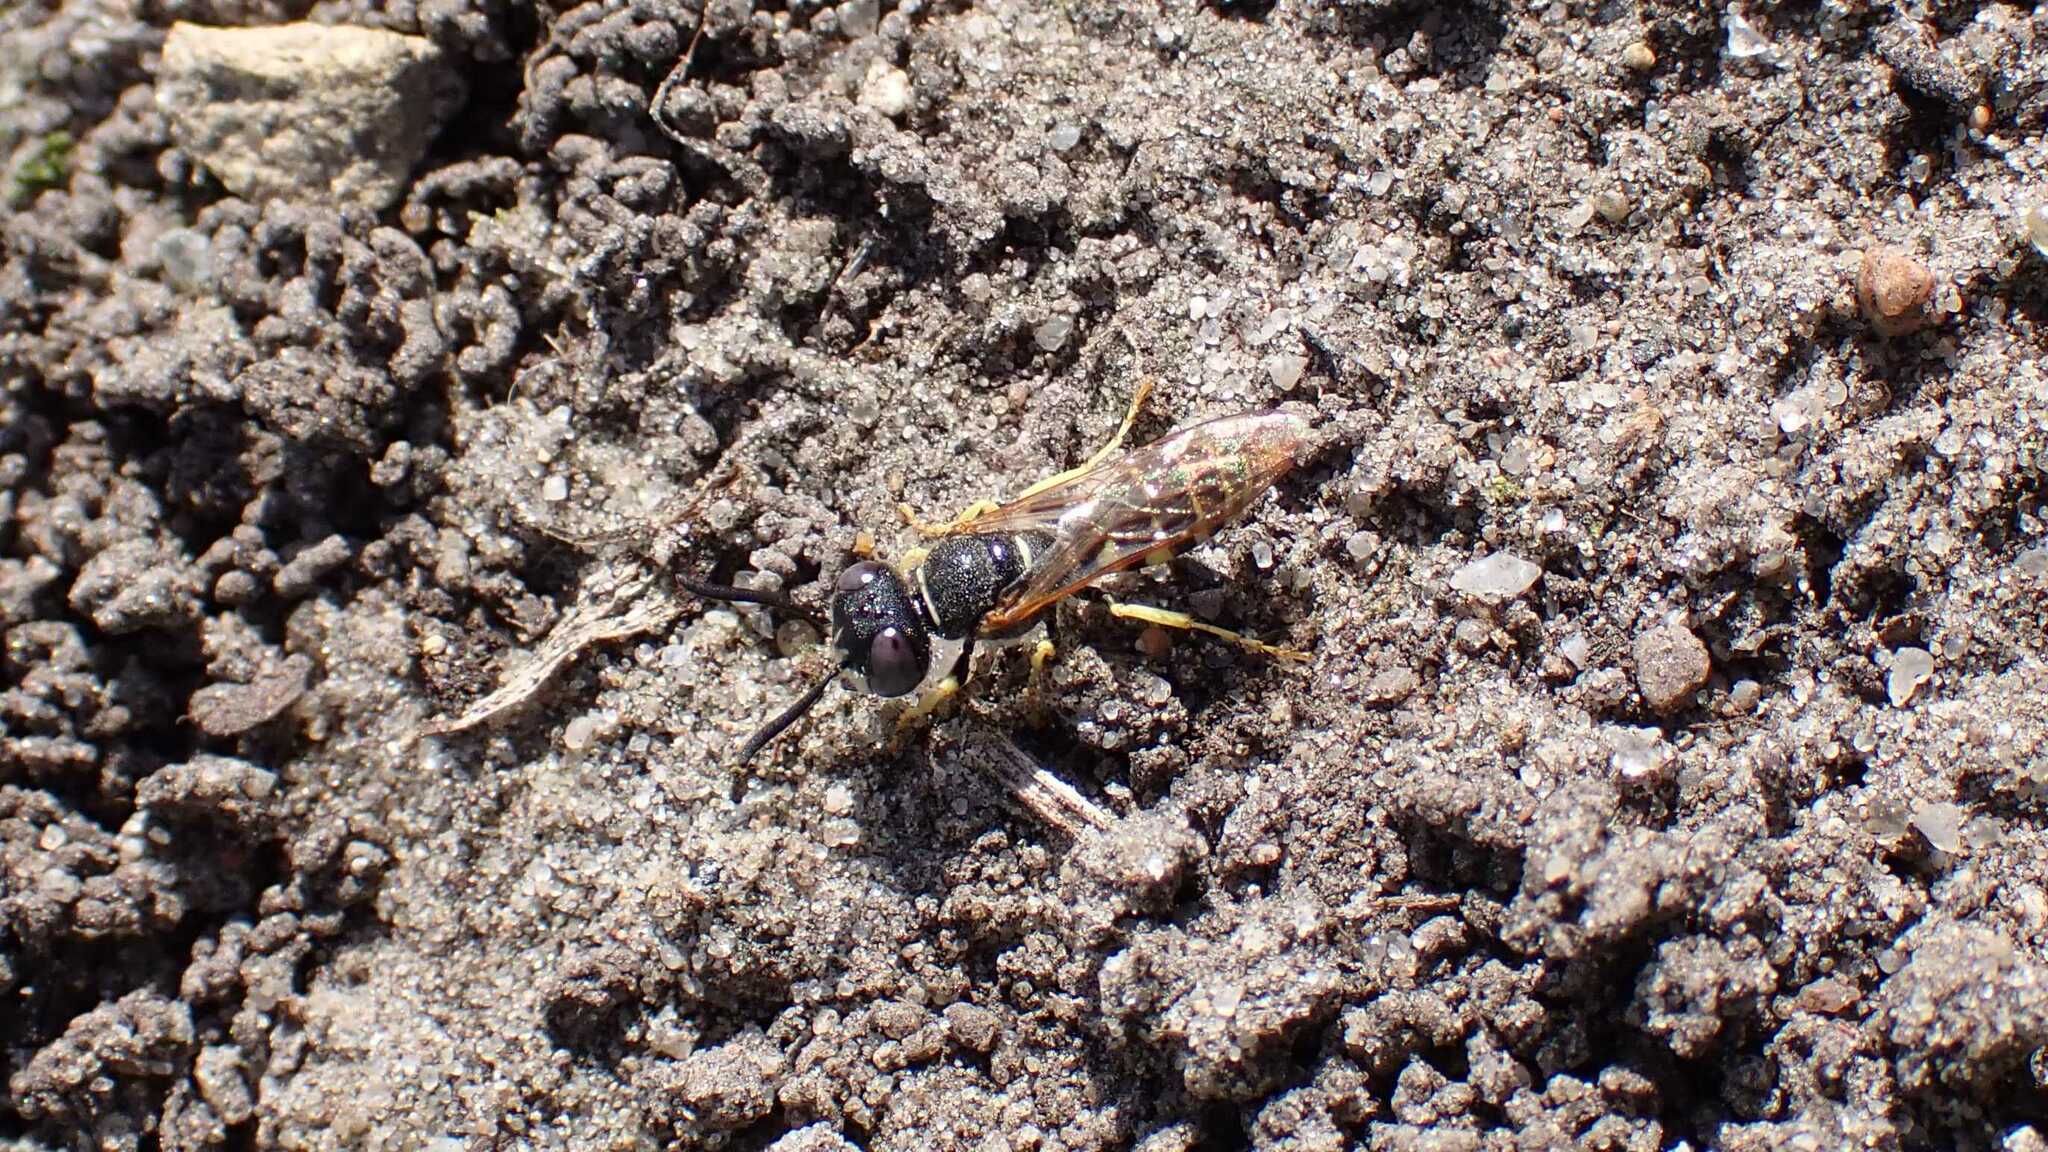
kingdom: Animalia
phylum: Arthropoda
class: Insecta
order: Hymenoptera
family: Crabronidae
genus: Philanthus
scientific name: Philanthus triangulum
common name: Bee wolf
